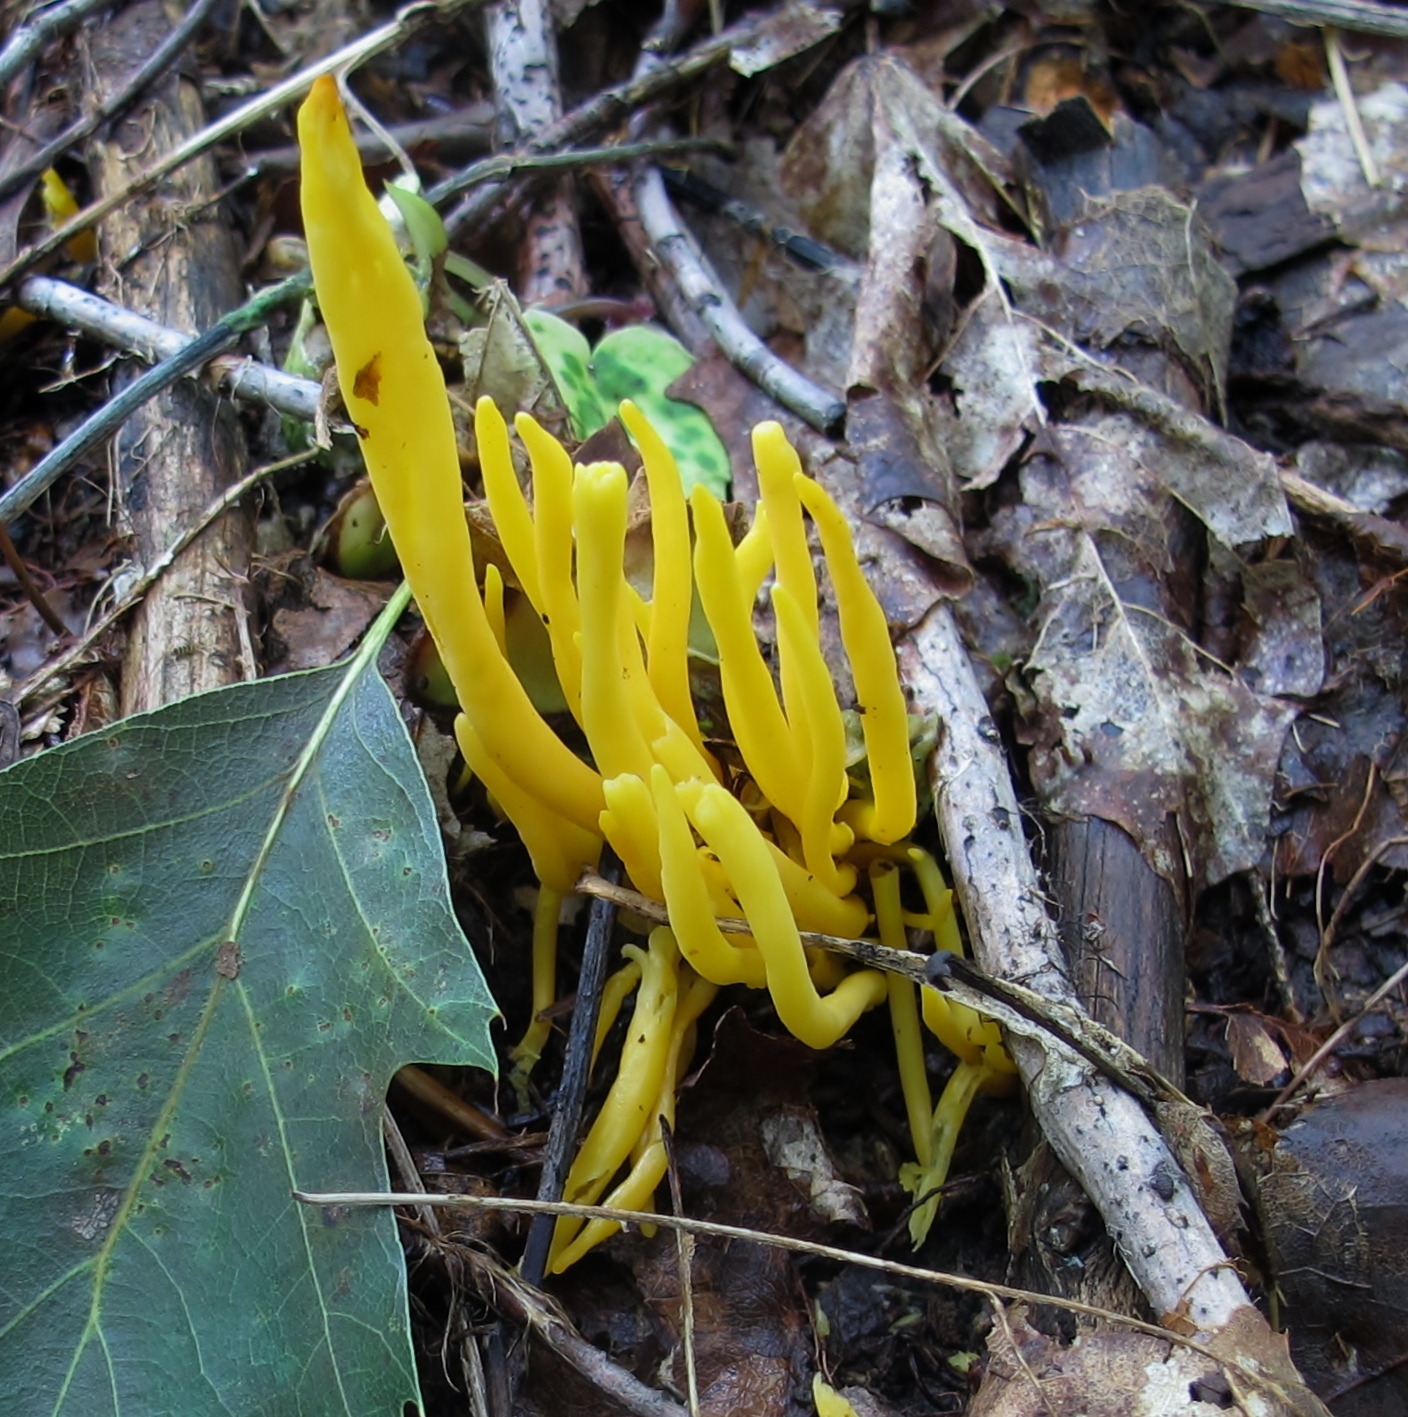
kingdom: Fungi
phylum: Basidiomycota
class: Agaricomycetes
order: Agaricales
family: Clavariaceae
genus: Clavulinopsis
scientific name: Clavulinopsis fusiformis
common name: Golden spindles
